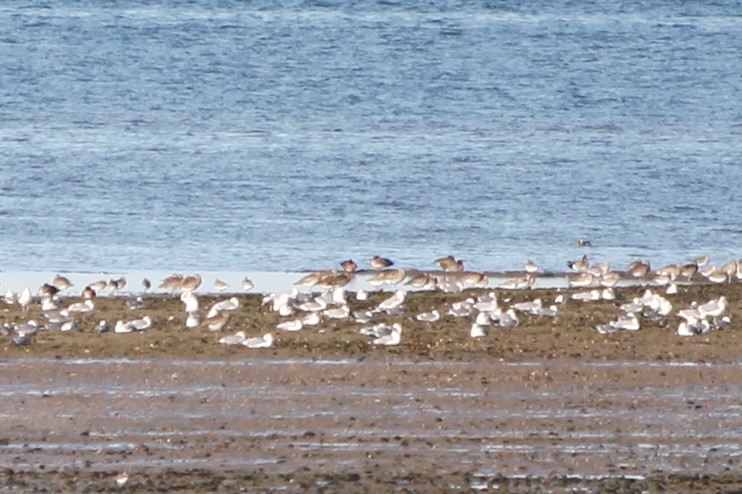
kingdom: Animalia
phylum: Chordata
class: Aves
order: Charadriiformes
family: Scolopacidae
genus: Numenius
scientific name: Numenius arquata
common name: Eurasian curlew
